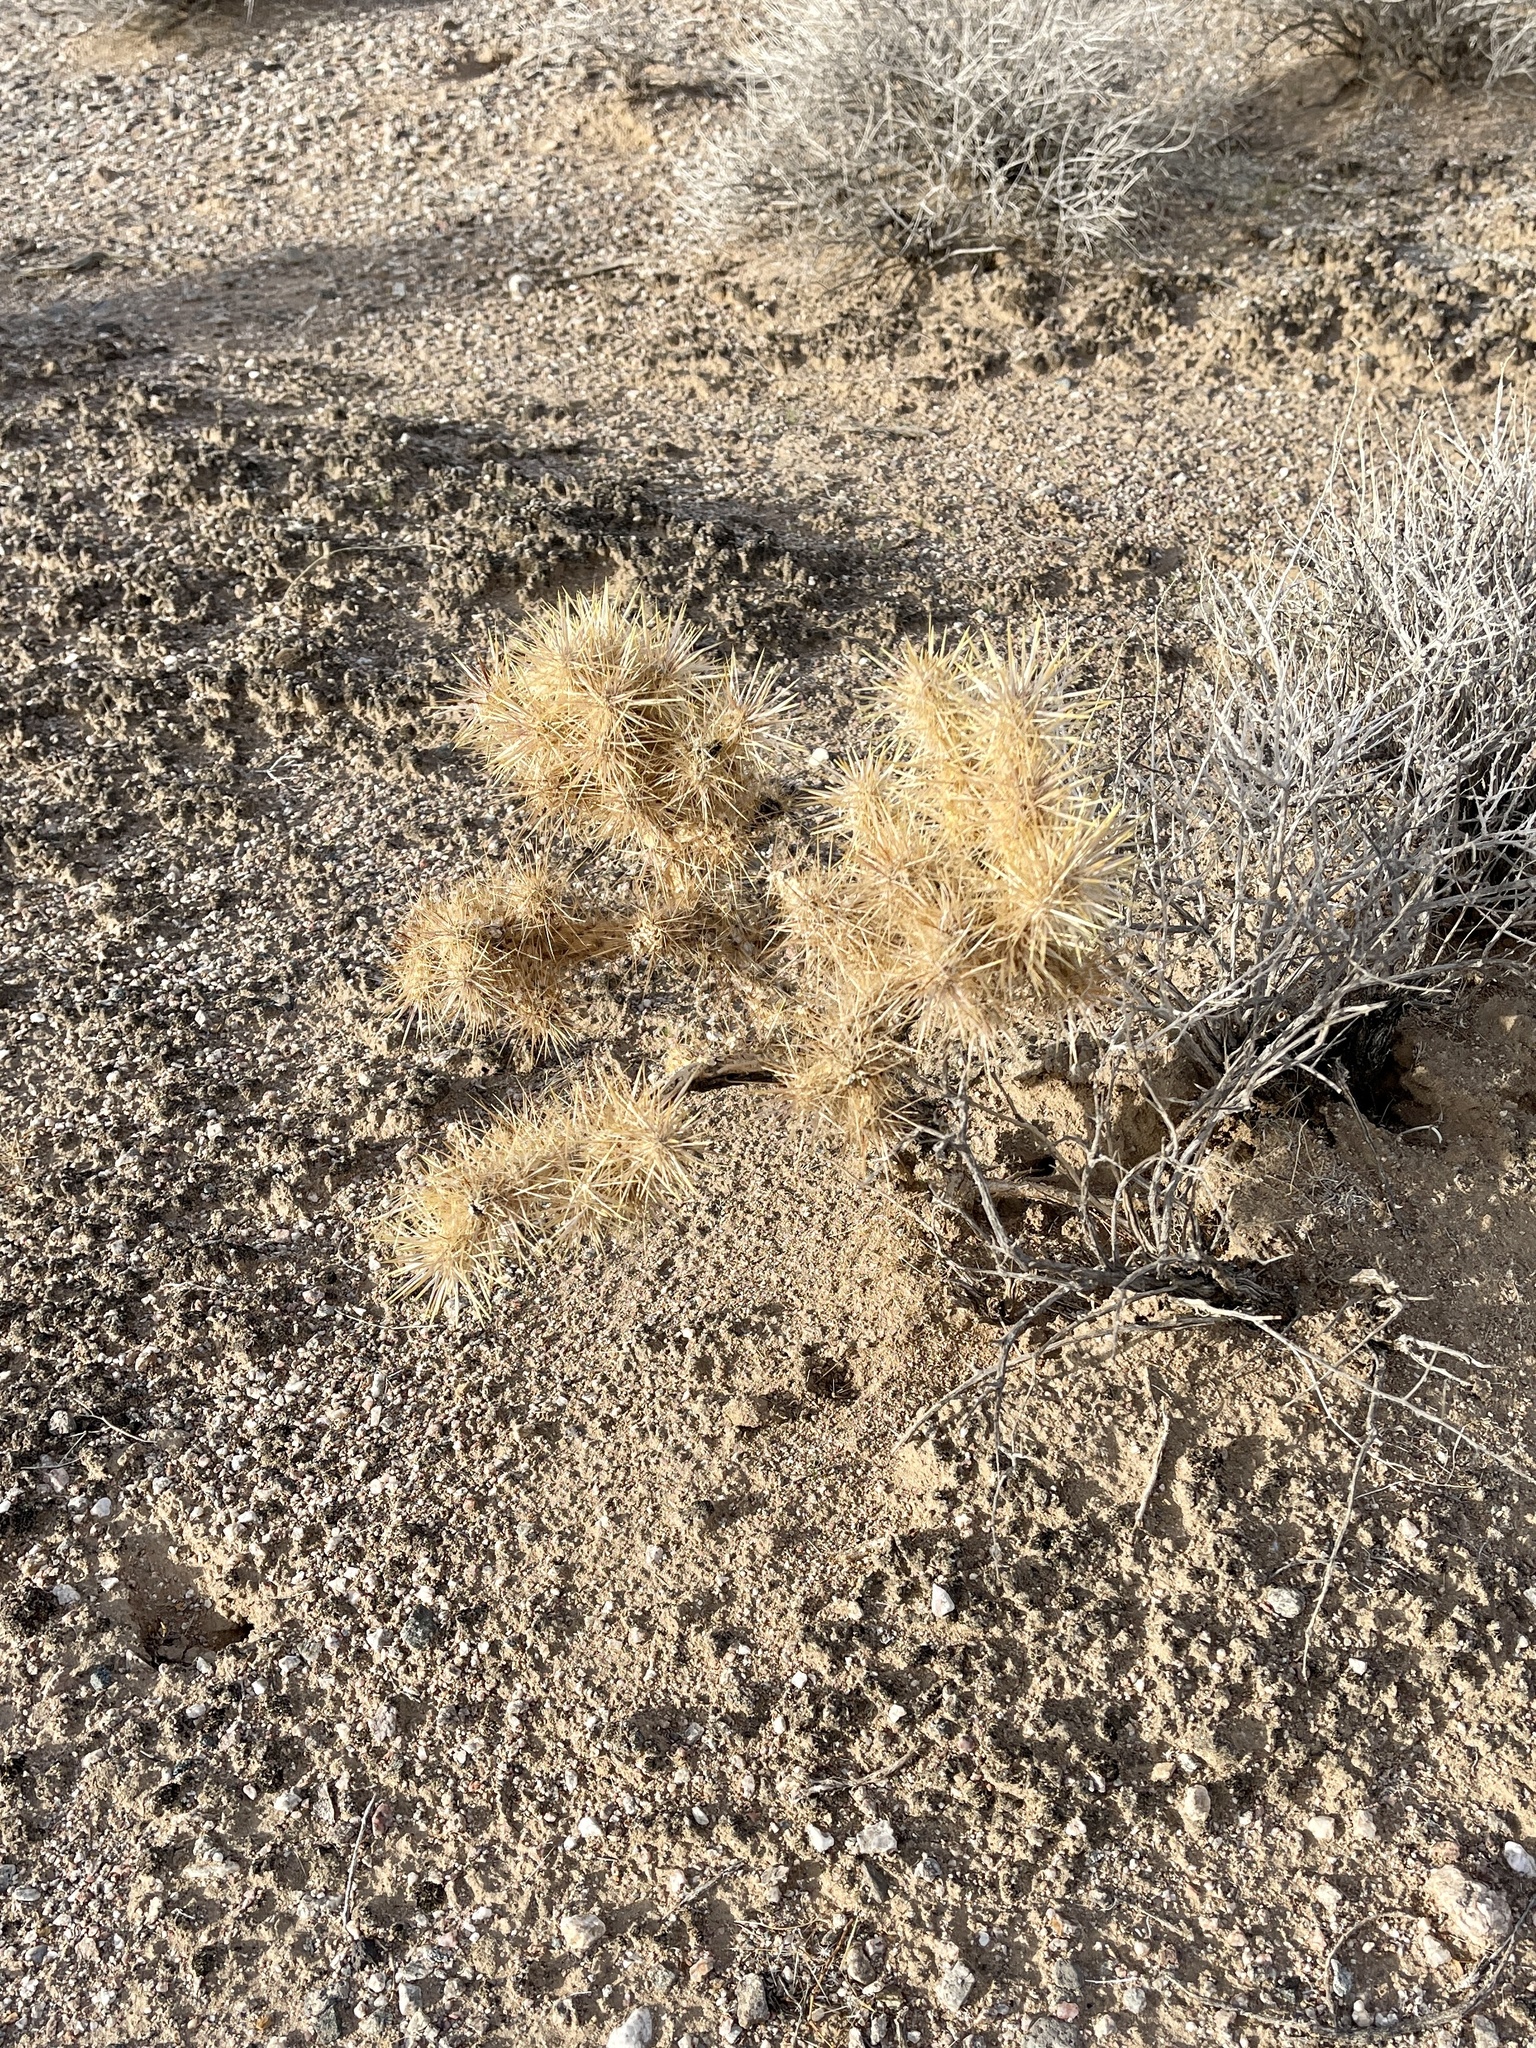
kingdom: Plantae
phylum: Tracheophyta
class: Magnoliopsida
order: Caryophyllales
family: Cactaceae
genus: Cylindropuntia
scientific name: Cylindropuntia echinocarpa
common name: Ground cholla
